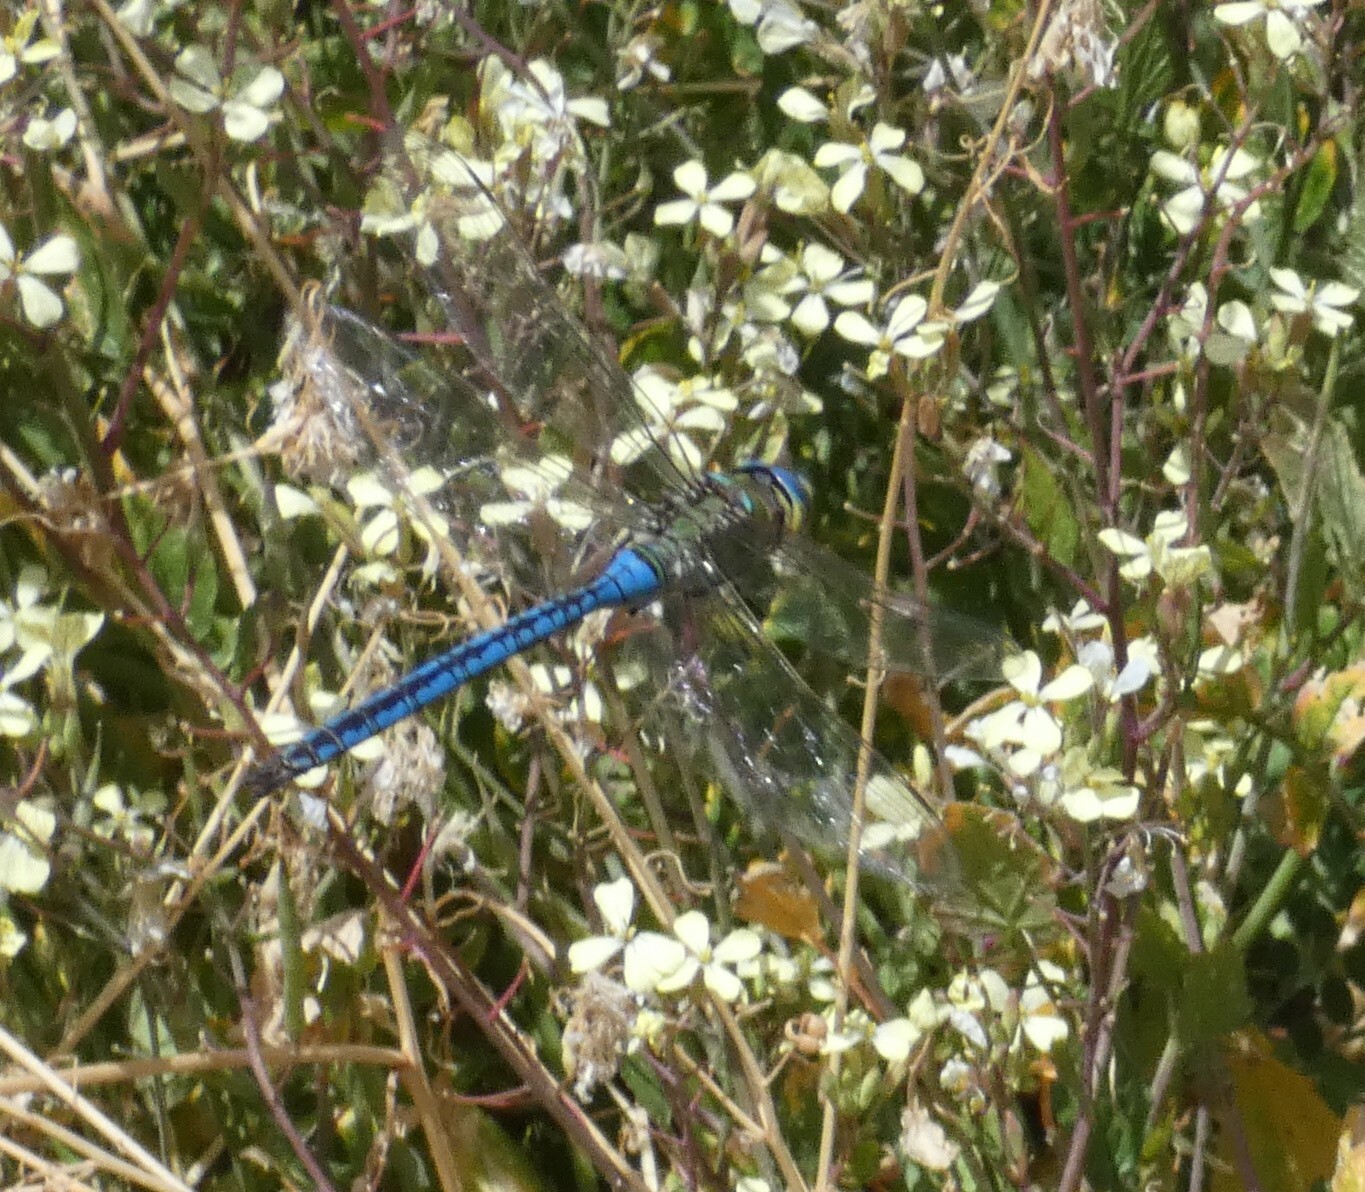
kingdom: Animalia
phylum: Arthropoda
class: Insecta
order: Odonata
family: Aeshnidae
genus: Anax
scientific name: Anax imperator
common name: Emperor dragonfly
